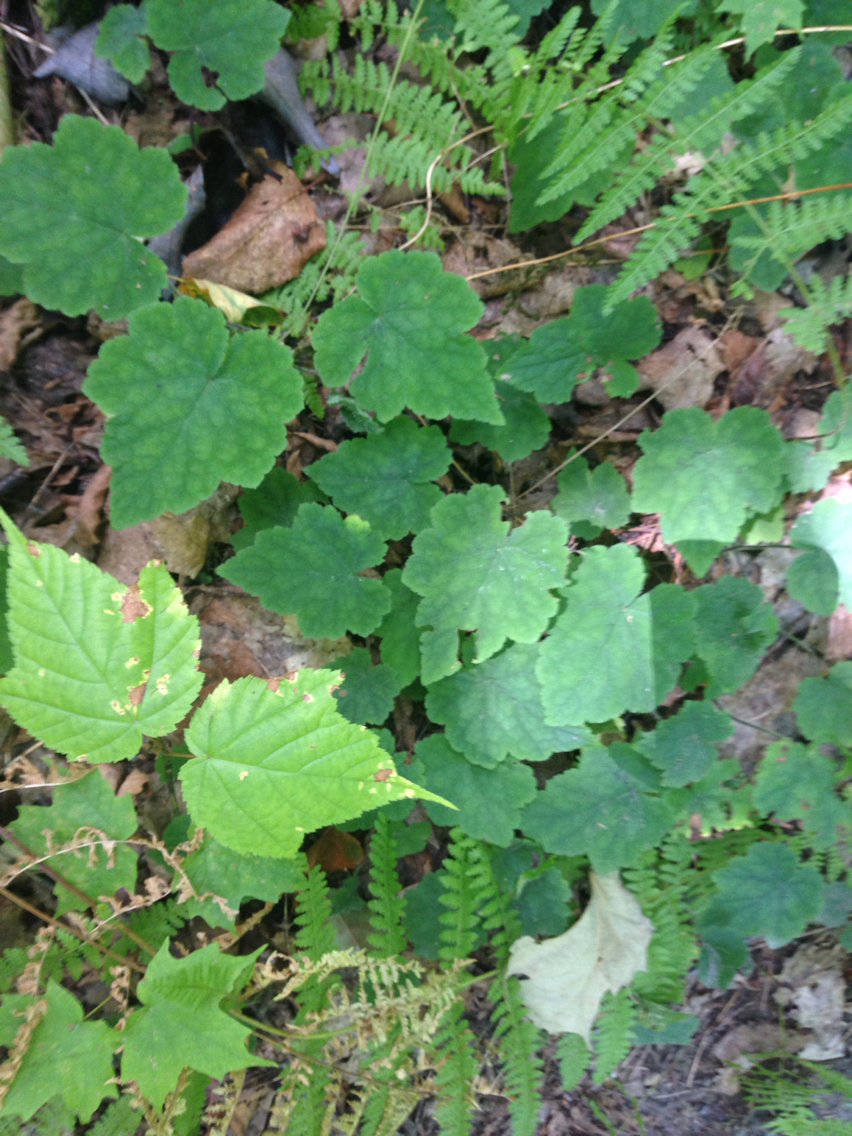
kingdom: Plantae
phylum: Tracheophyta
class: Magnoliopsida
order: Saxifragales
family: Saxifragaceae
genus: Tiarella
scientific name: Tiarella stolonifera
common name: Stoloniferous foamflower
